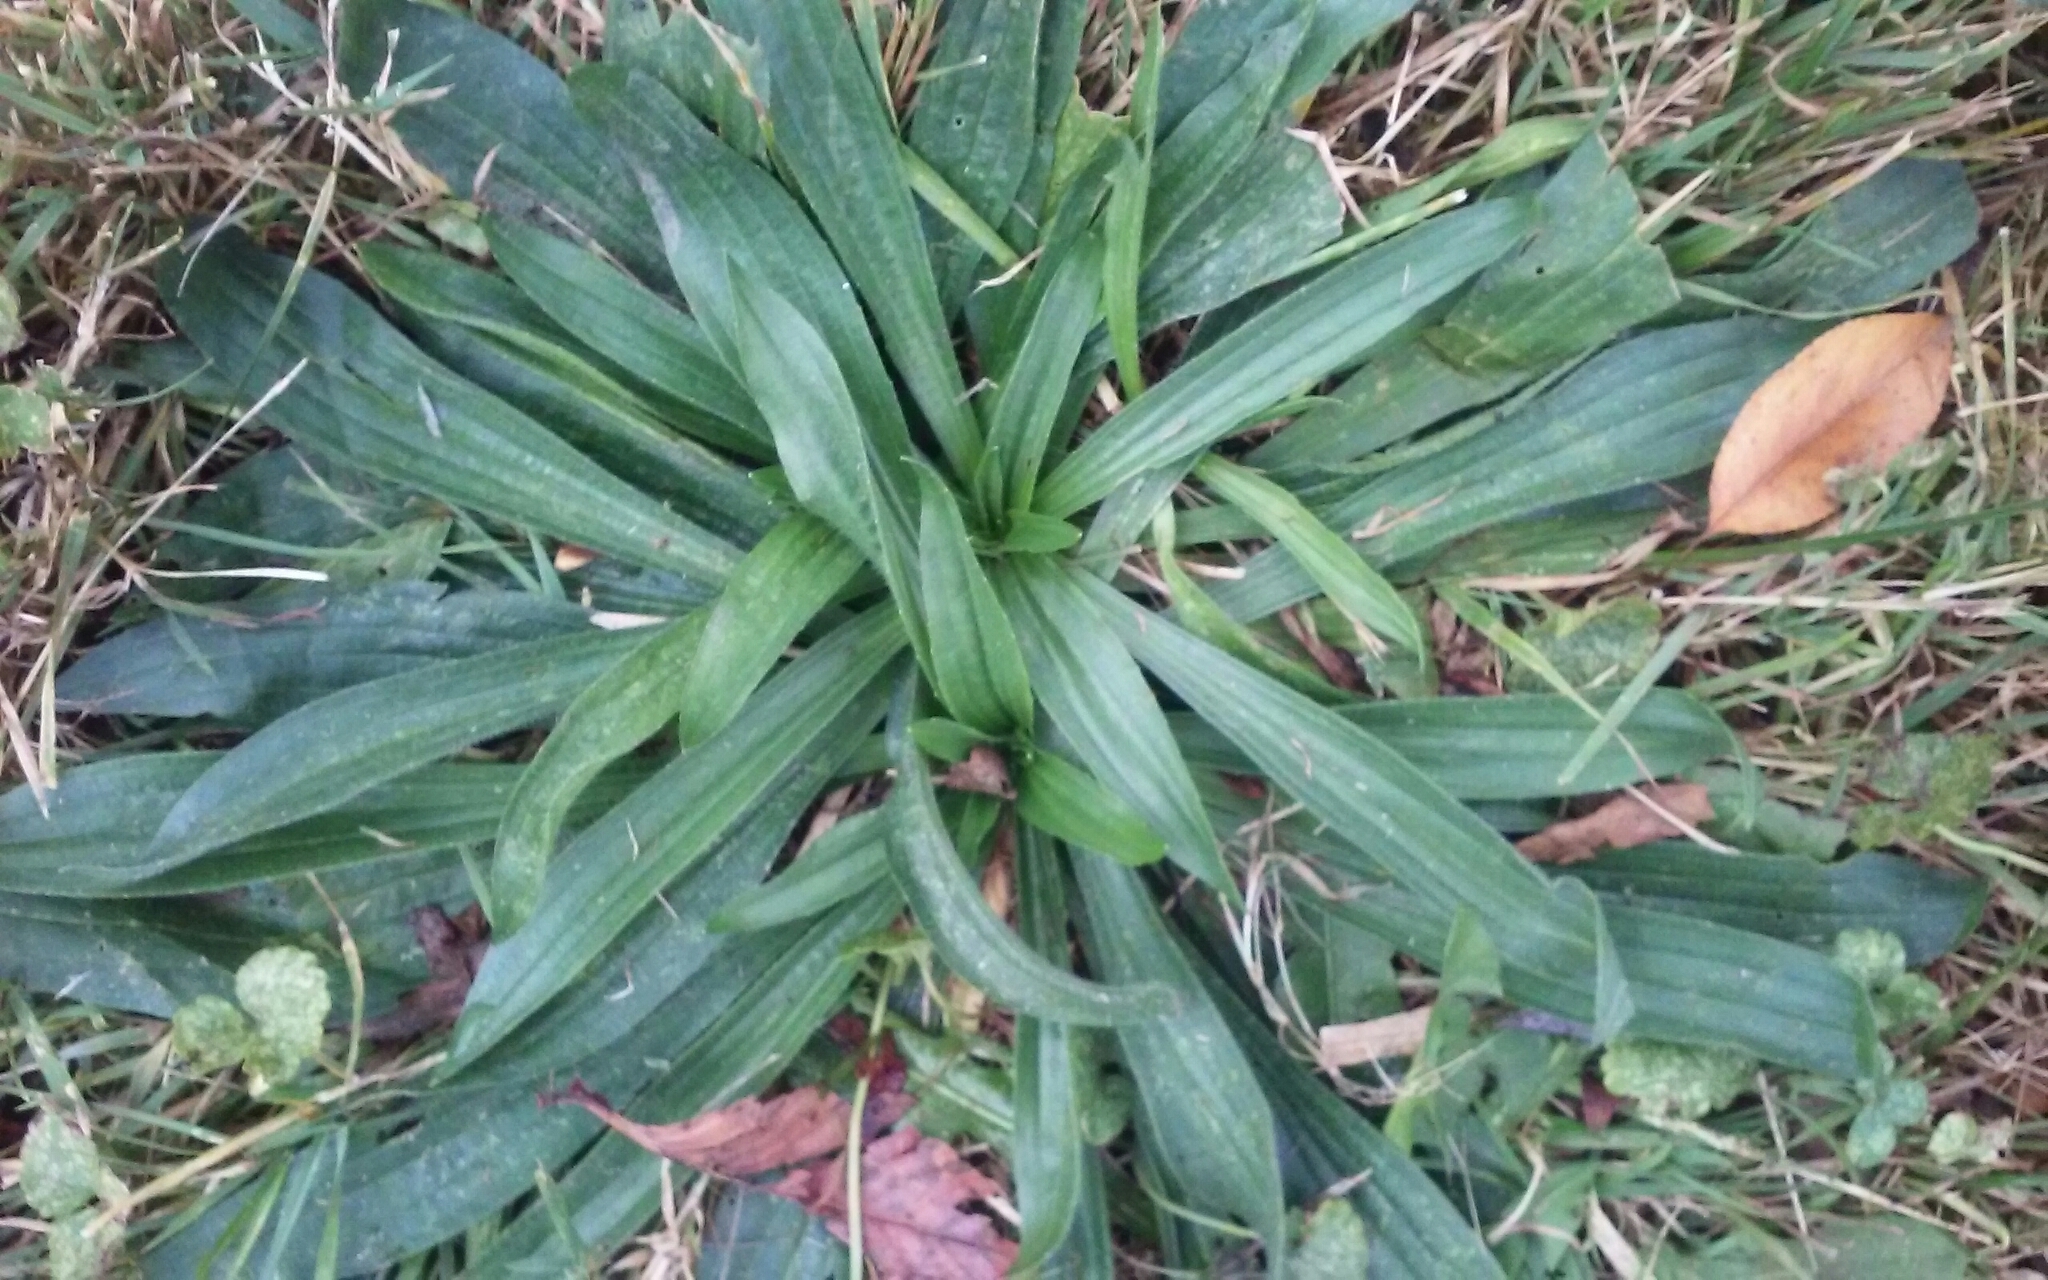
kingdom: Plantae
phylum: Tracheophyta
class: Magnoliopsida
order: Lamiales
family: Plantaginaceae
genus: Plantago
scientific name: Plantago lanceolata
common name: Ribwort plantain
